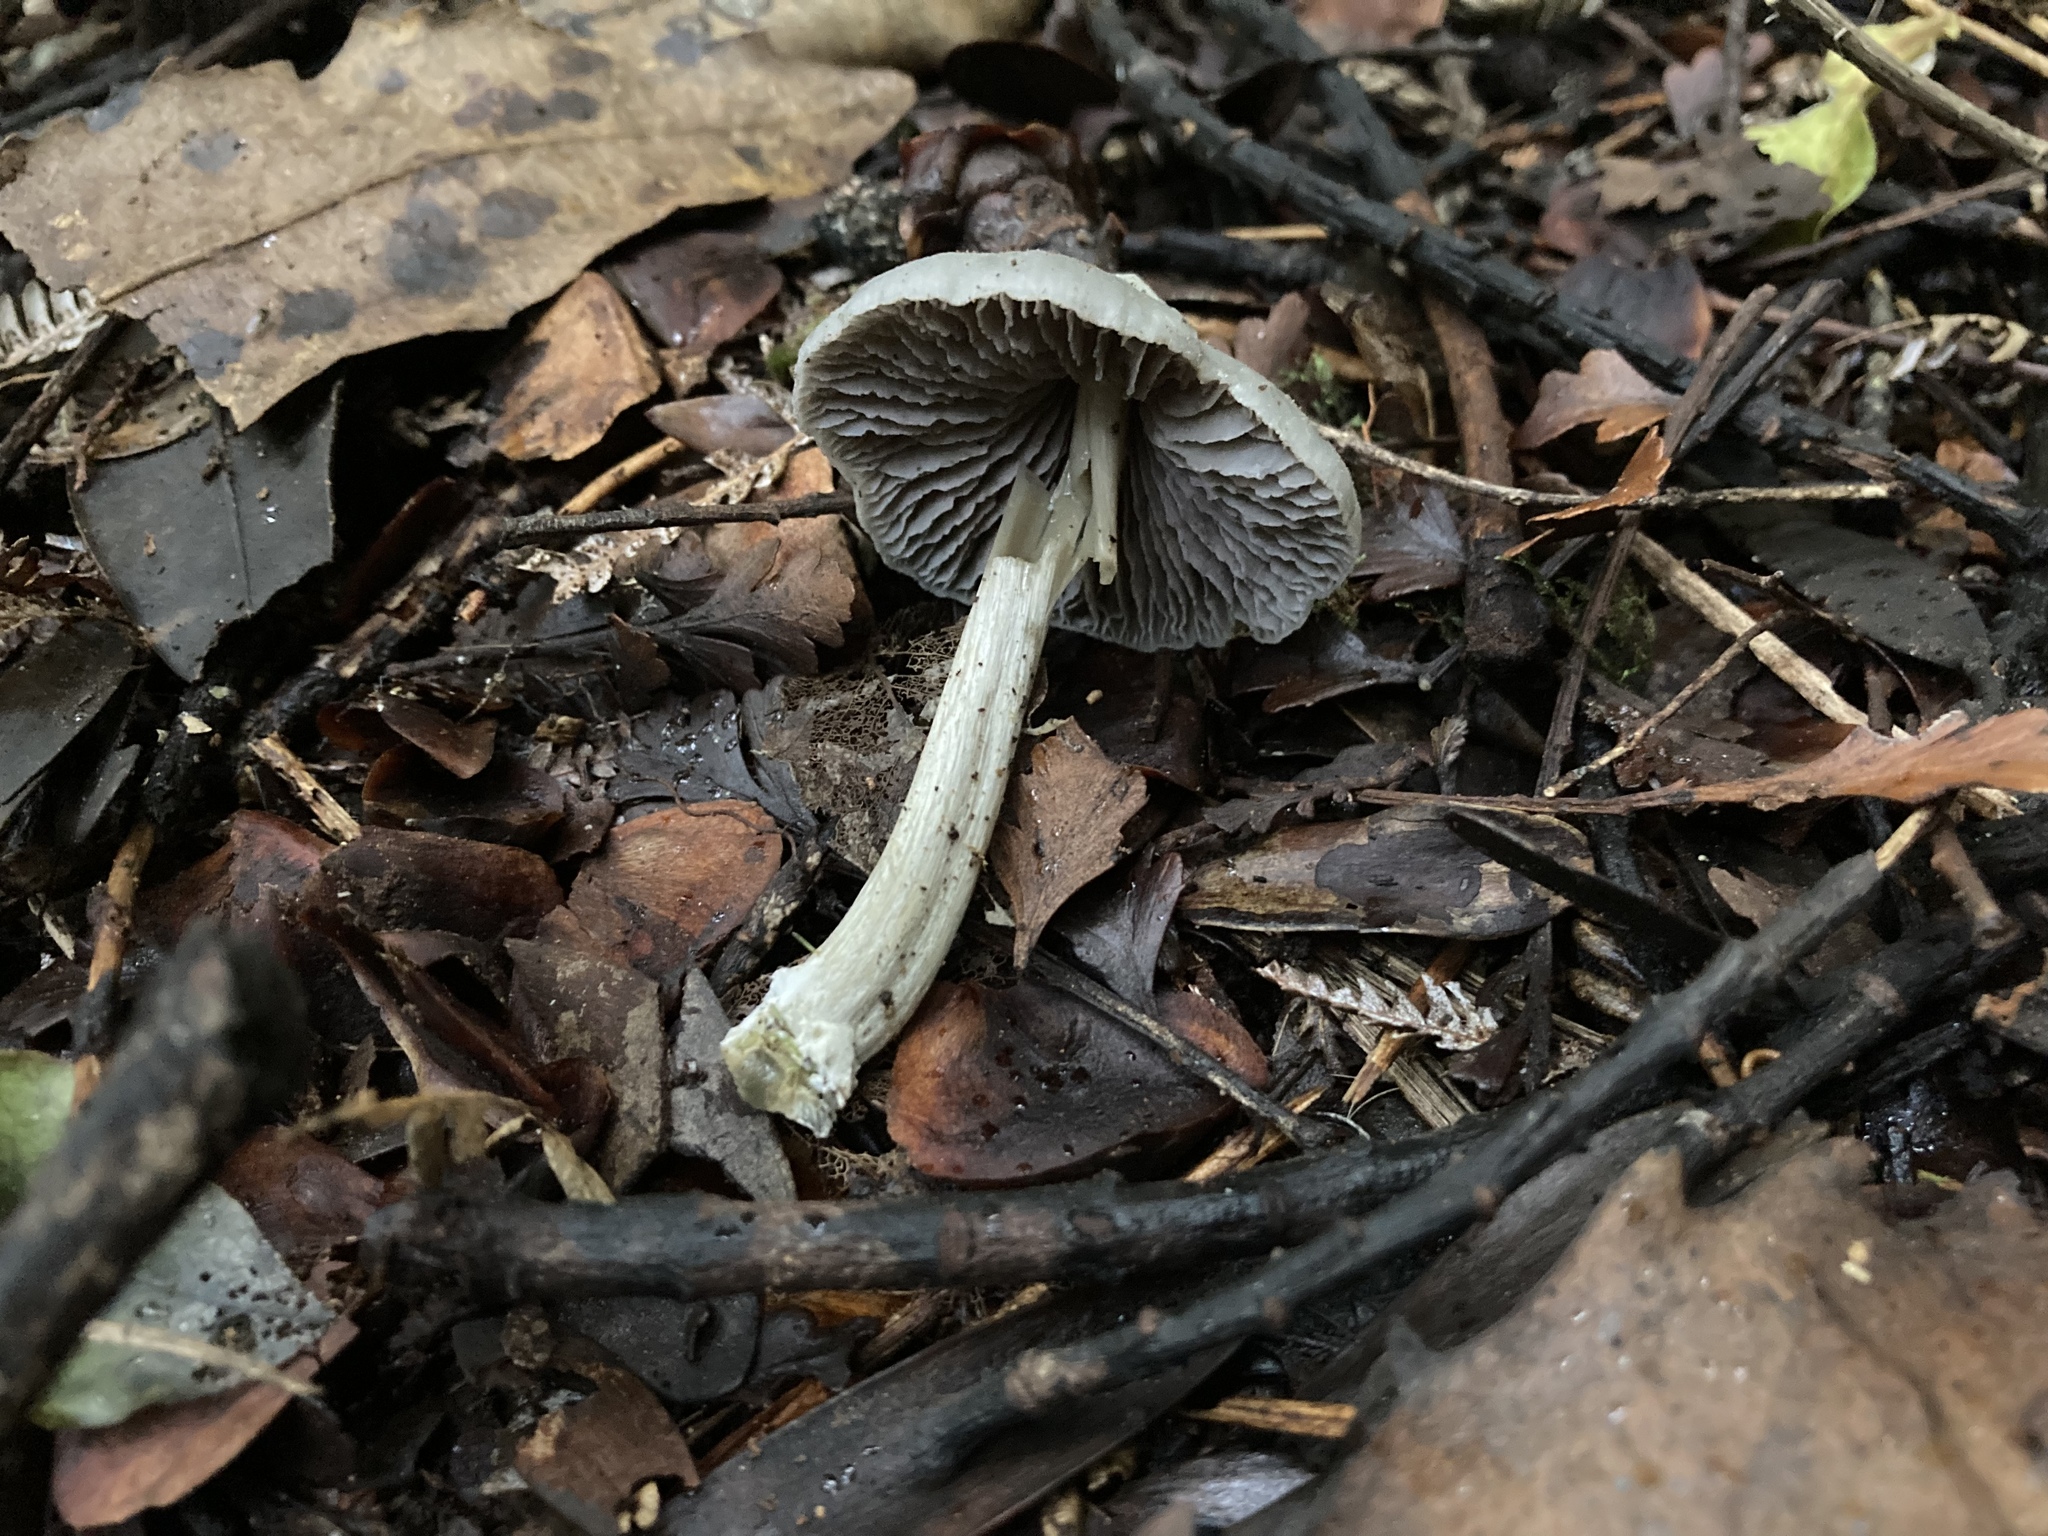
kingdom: Fungi
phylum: Basidiomycota
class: Agaricomycetes
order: Agaricales
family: Entolomataceae
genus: Entoloma
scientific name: Entoloma canoconicum
